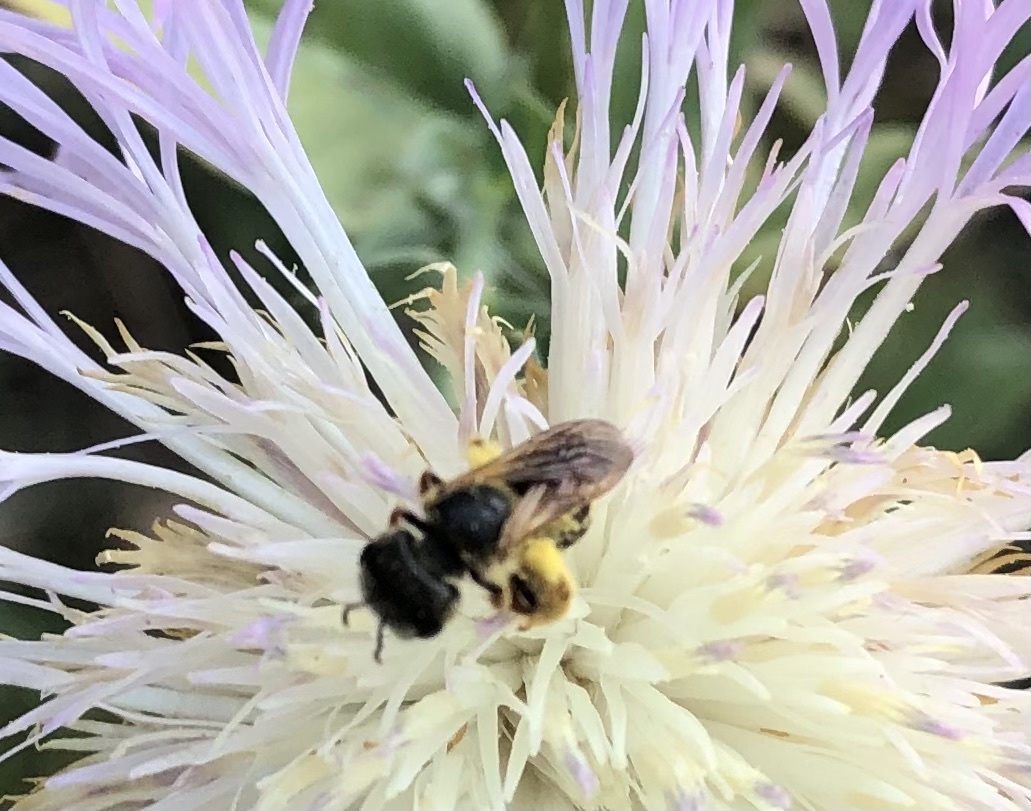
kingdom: Animalia
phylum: Arthropoda
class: Insecta
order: Hymenoptera
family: Halictidae
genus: Halictus
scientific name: Halictus poeyi
